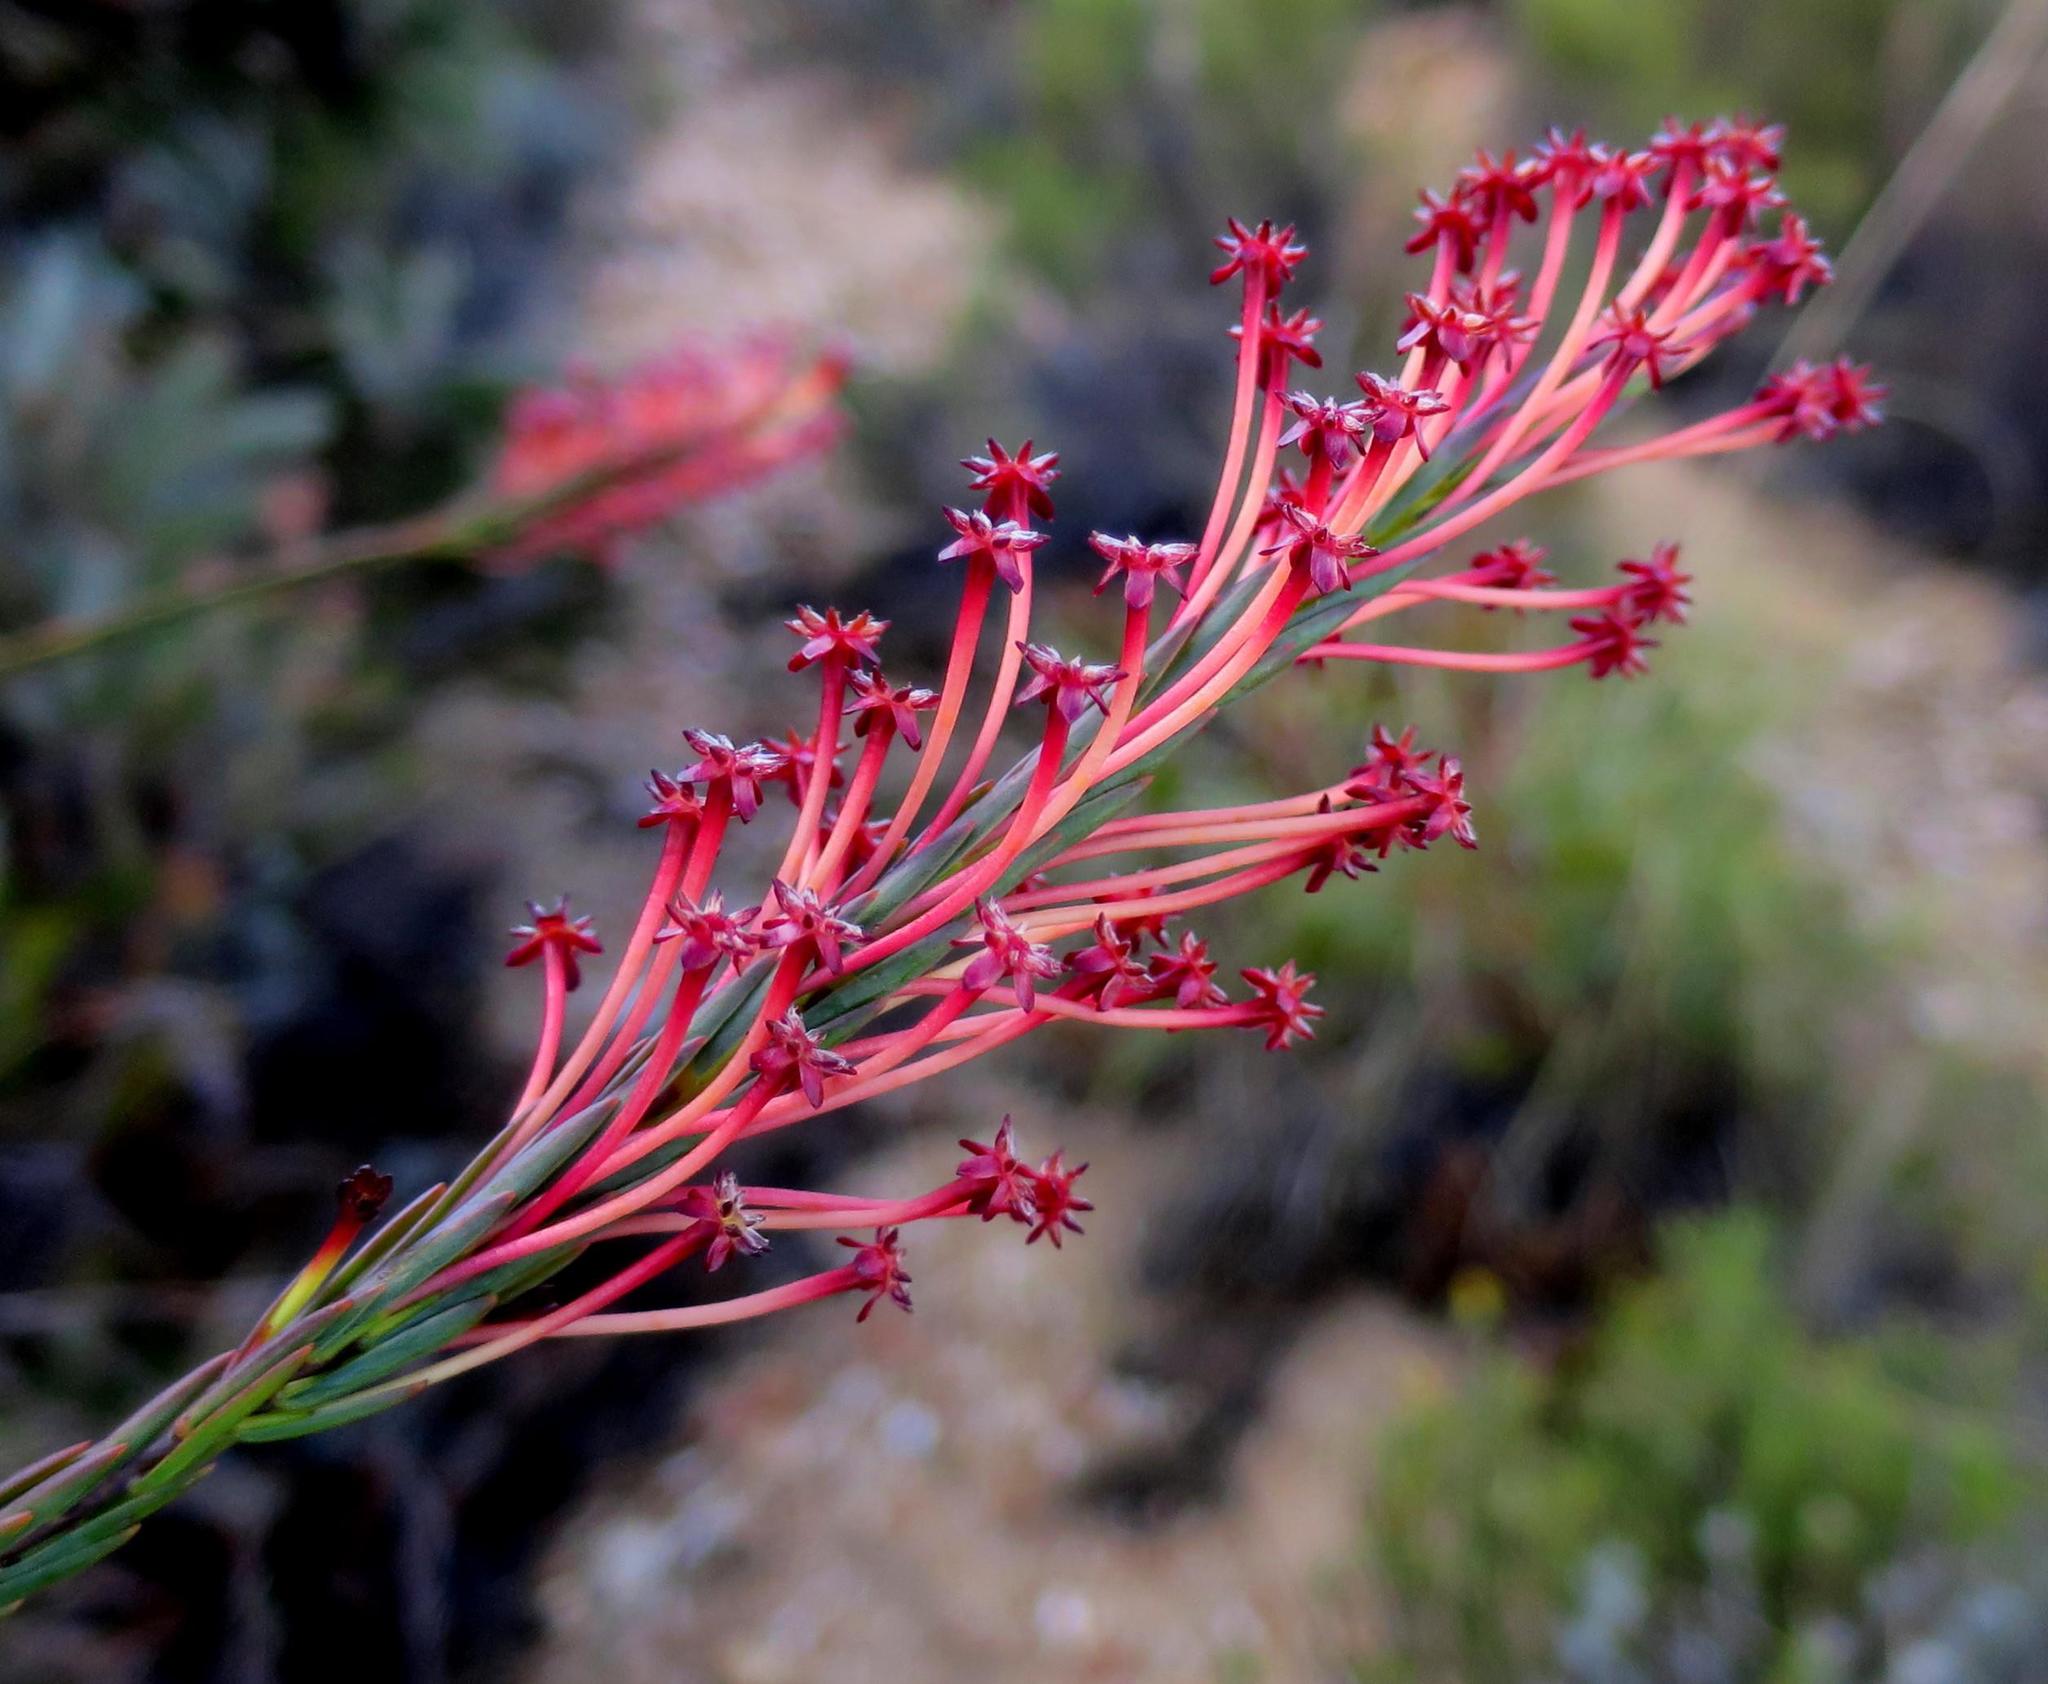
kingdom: Plantae
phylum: Tracheophyta
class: Magnoliopsida
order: Malvales
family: Thymelaeaceae
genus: Struthiola
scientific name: Struthiola macowanii
